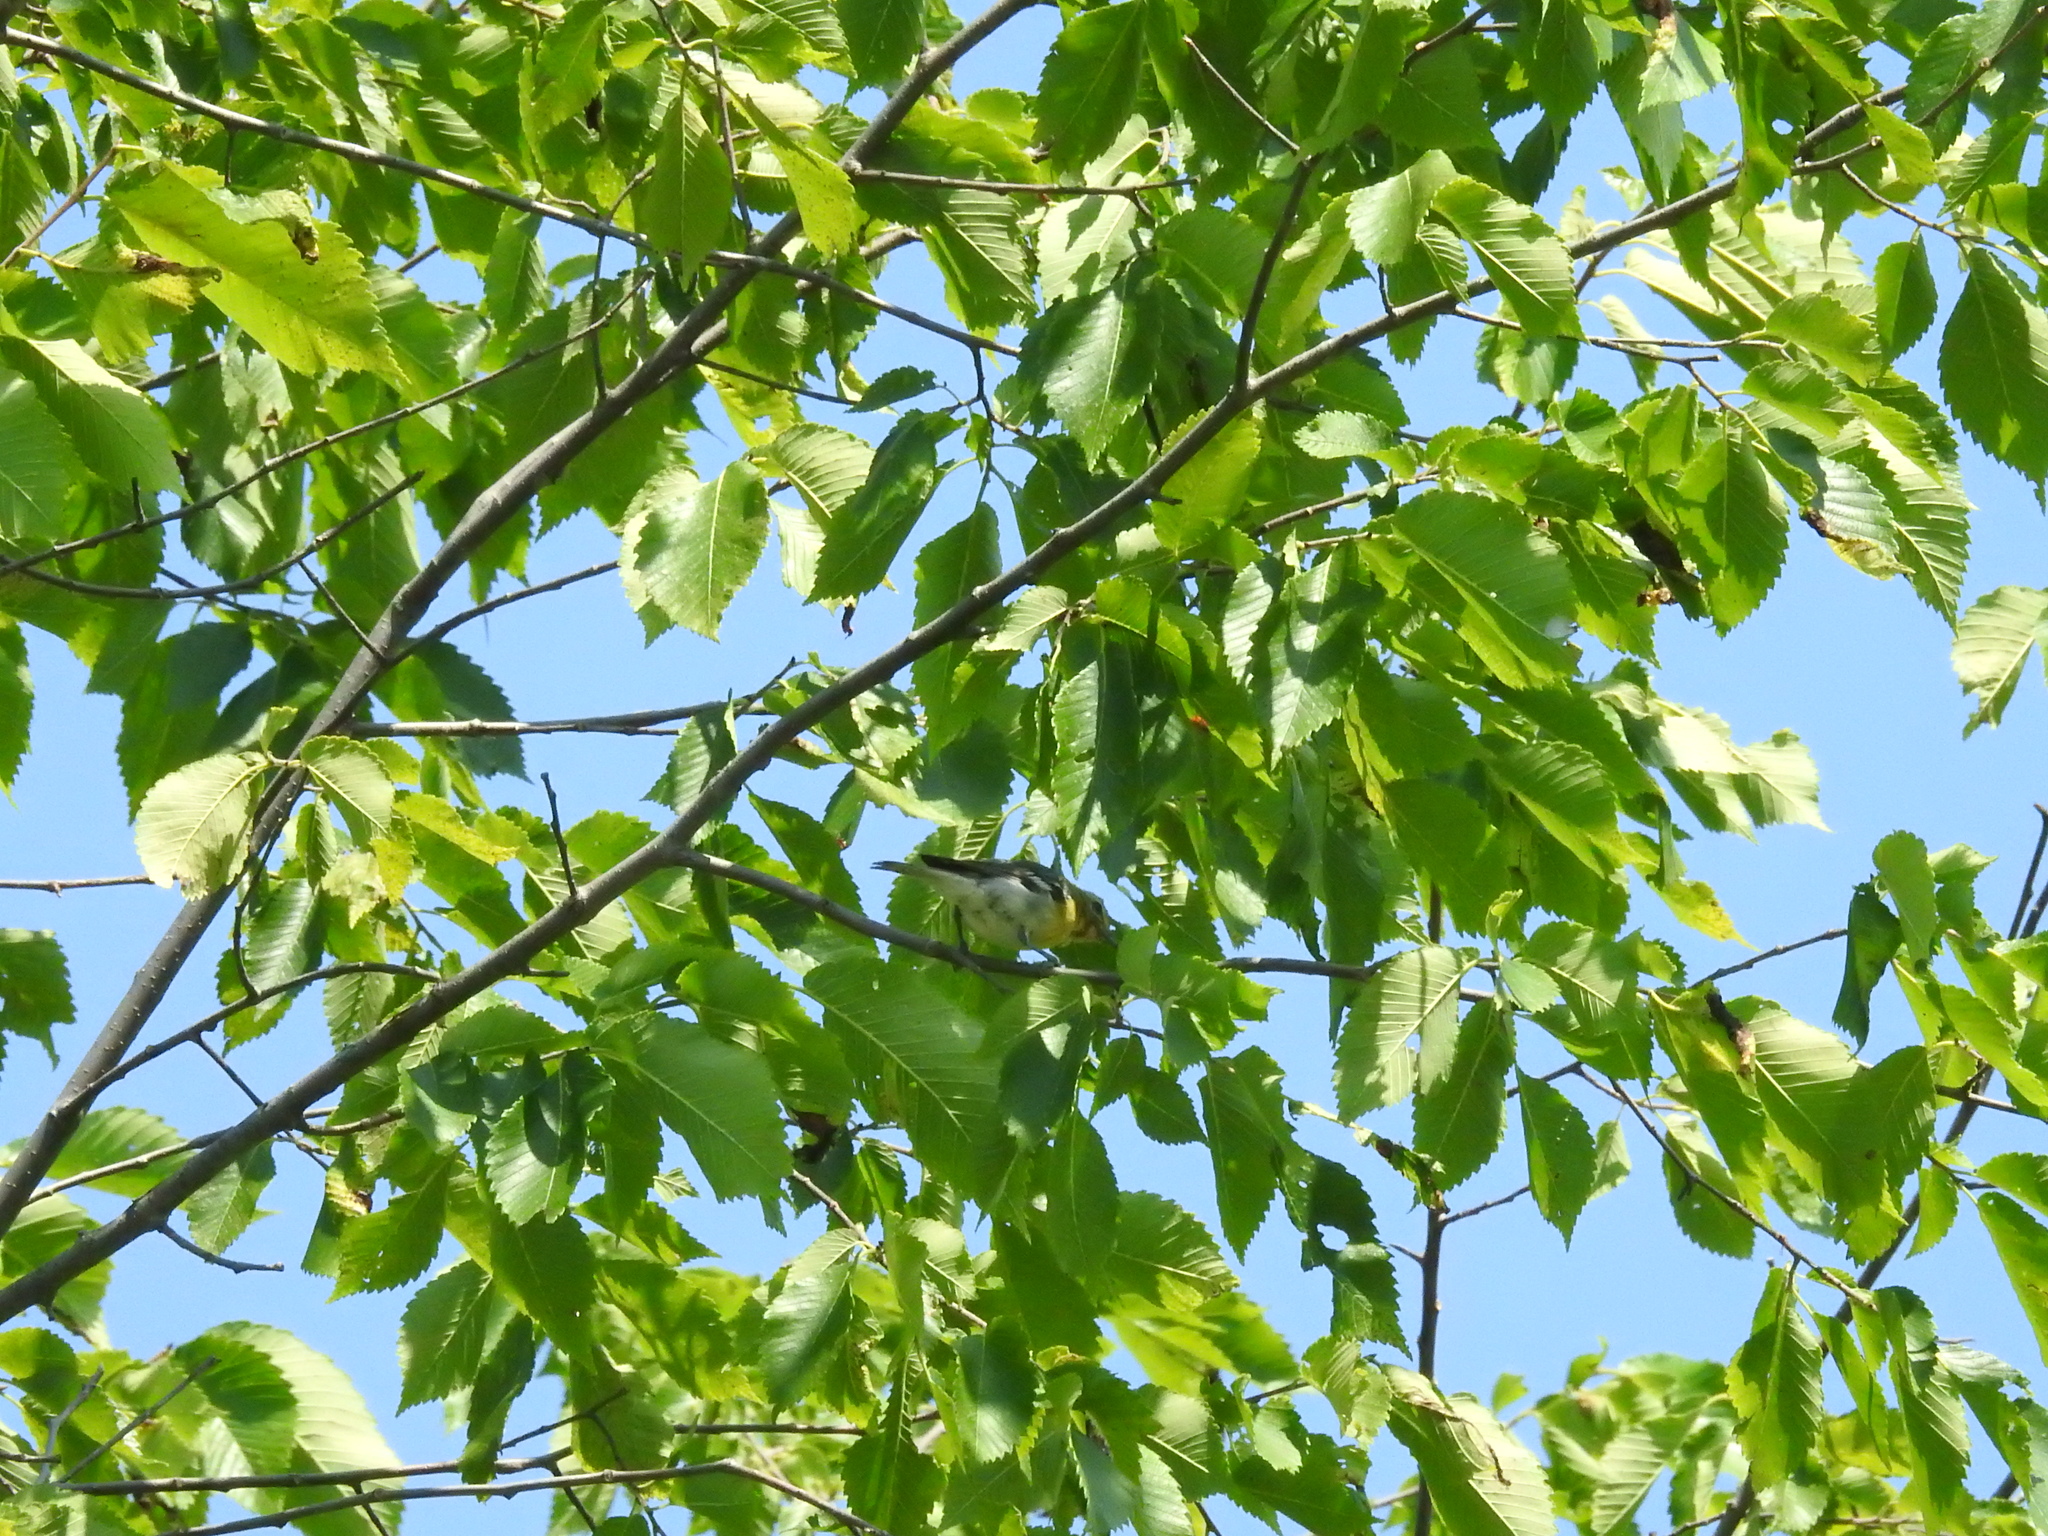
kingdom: Animalia
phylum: Chordata
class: Aves
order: Passeriformes
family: Vireonidae
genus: Vireo
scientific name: Vireo flavifrons
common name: Yellow-throated vireo
